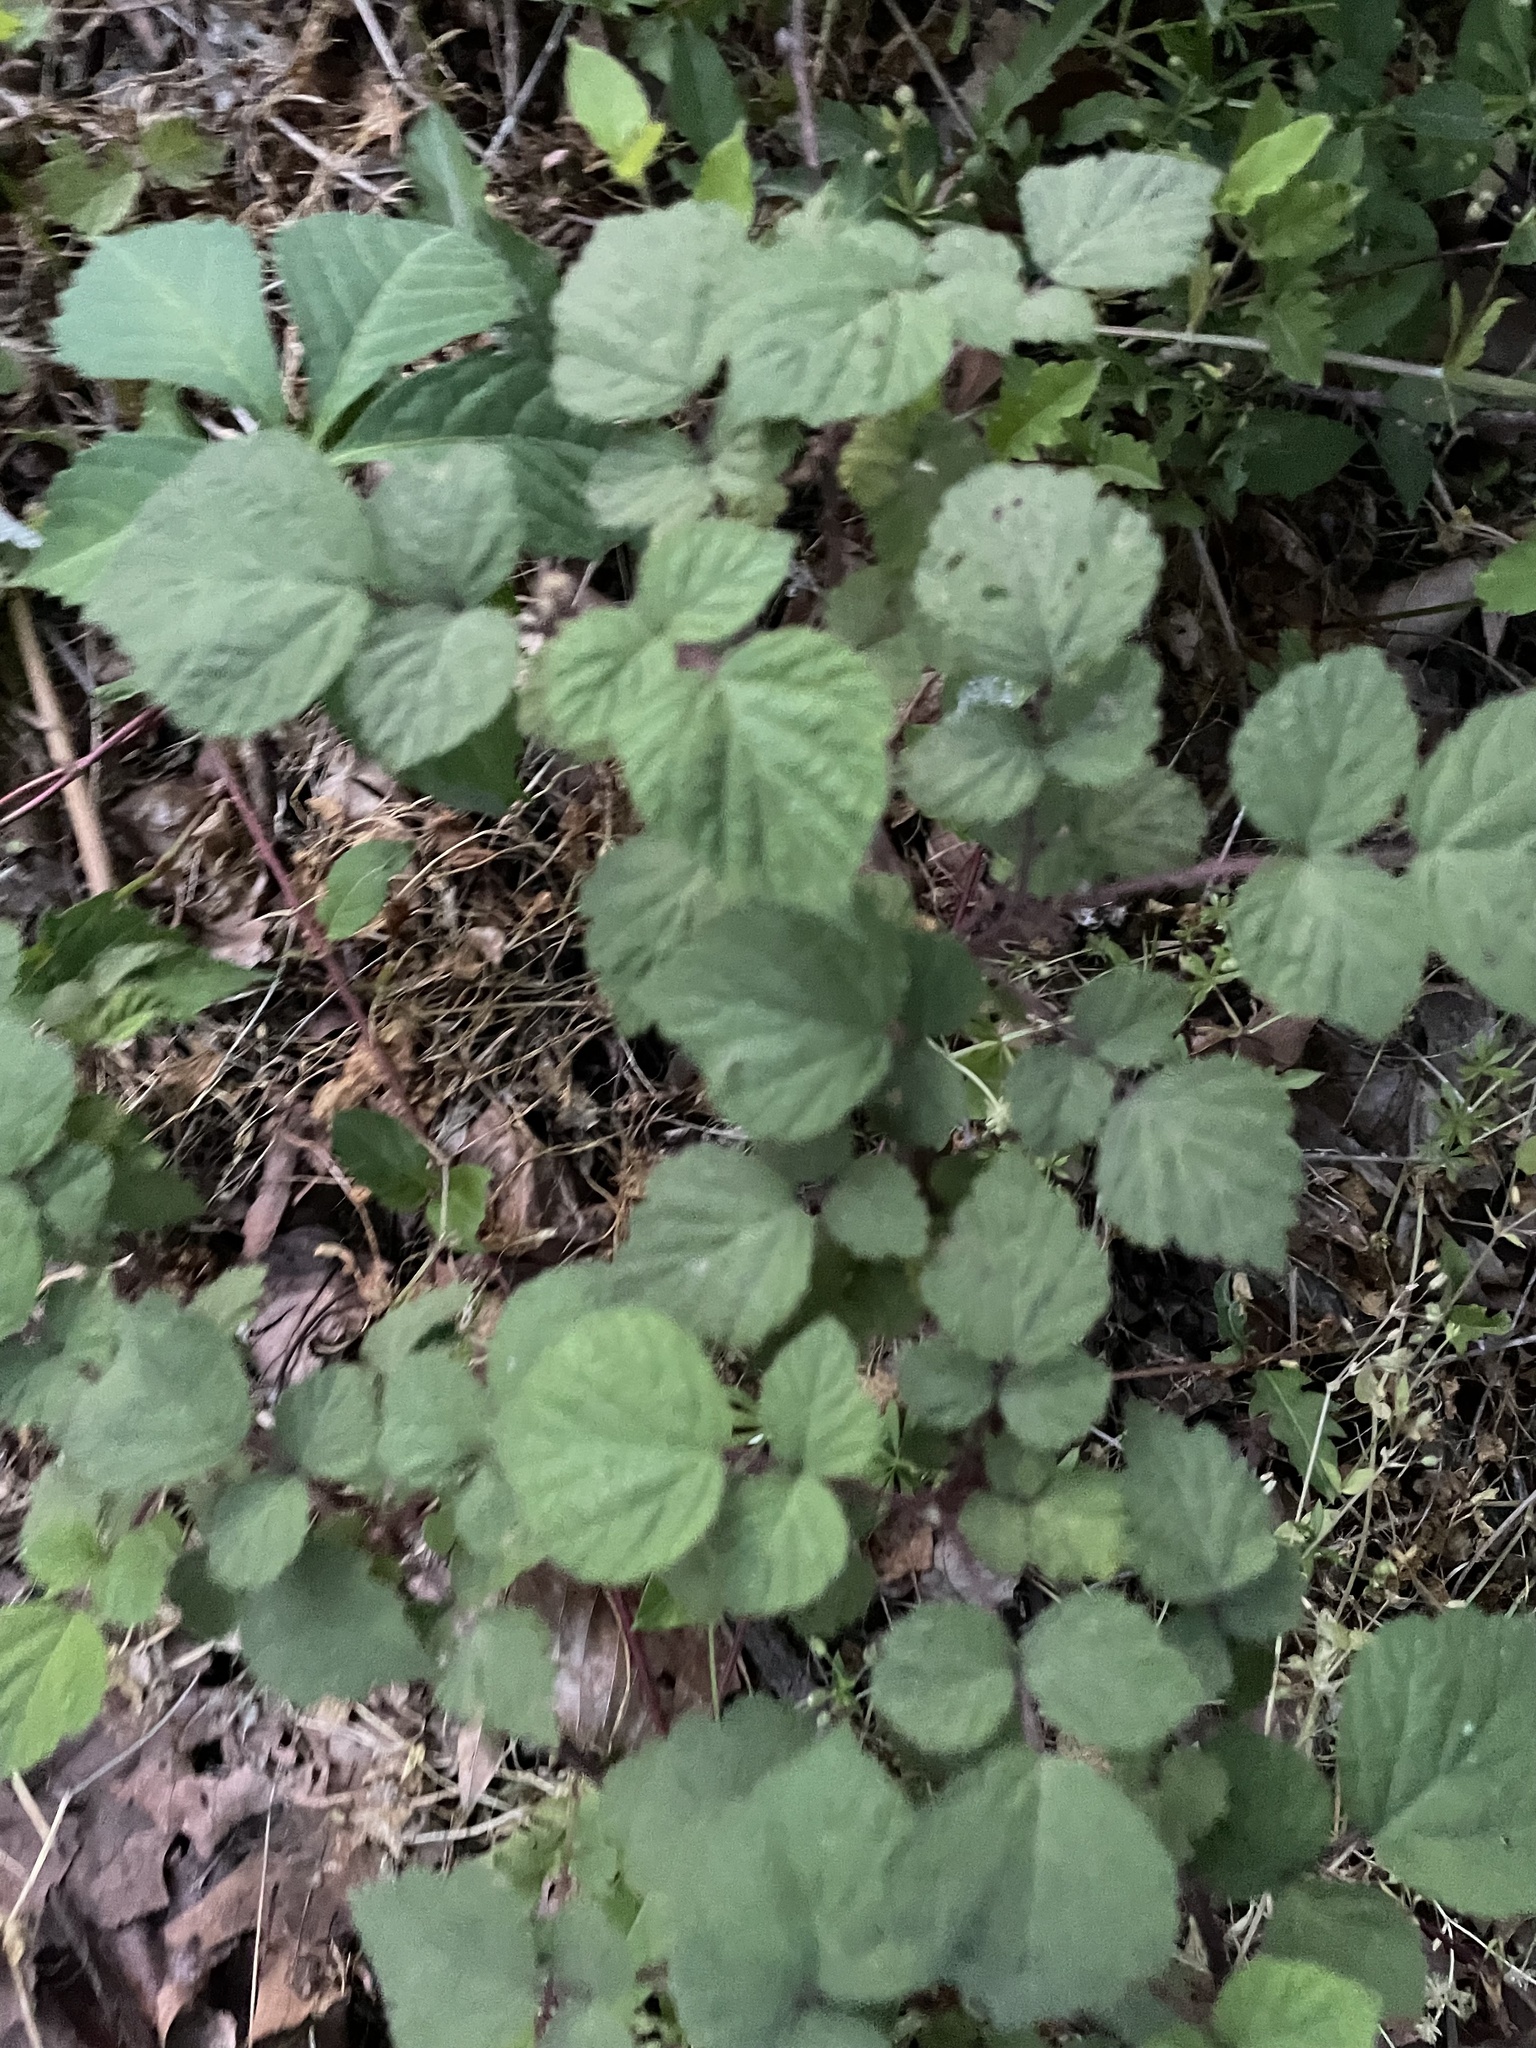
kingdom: Plantae
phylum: Tracheophyta
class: Magnoliopsida
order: Rosales
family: Rosaceae
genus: Rubus
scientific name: Rubus phoenicolasius
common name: Japanese wineberry
